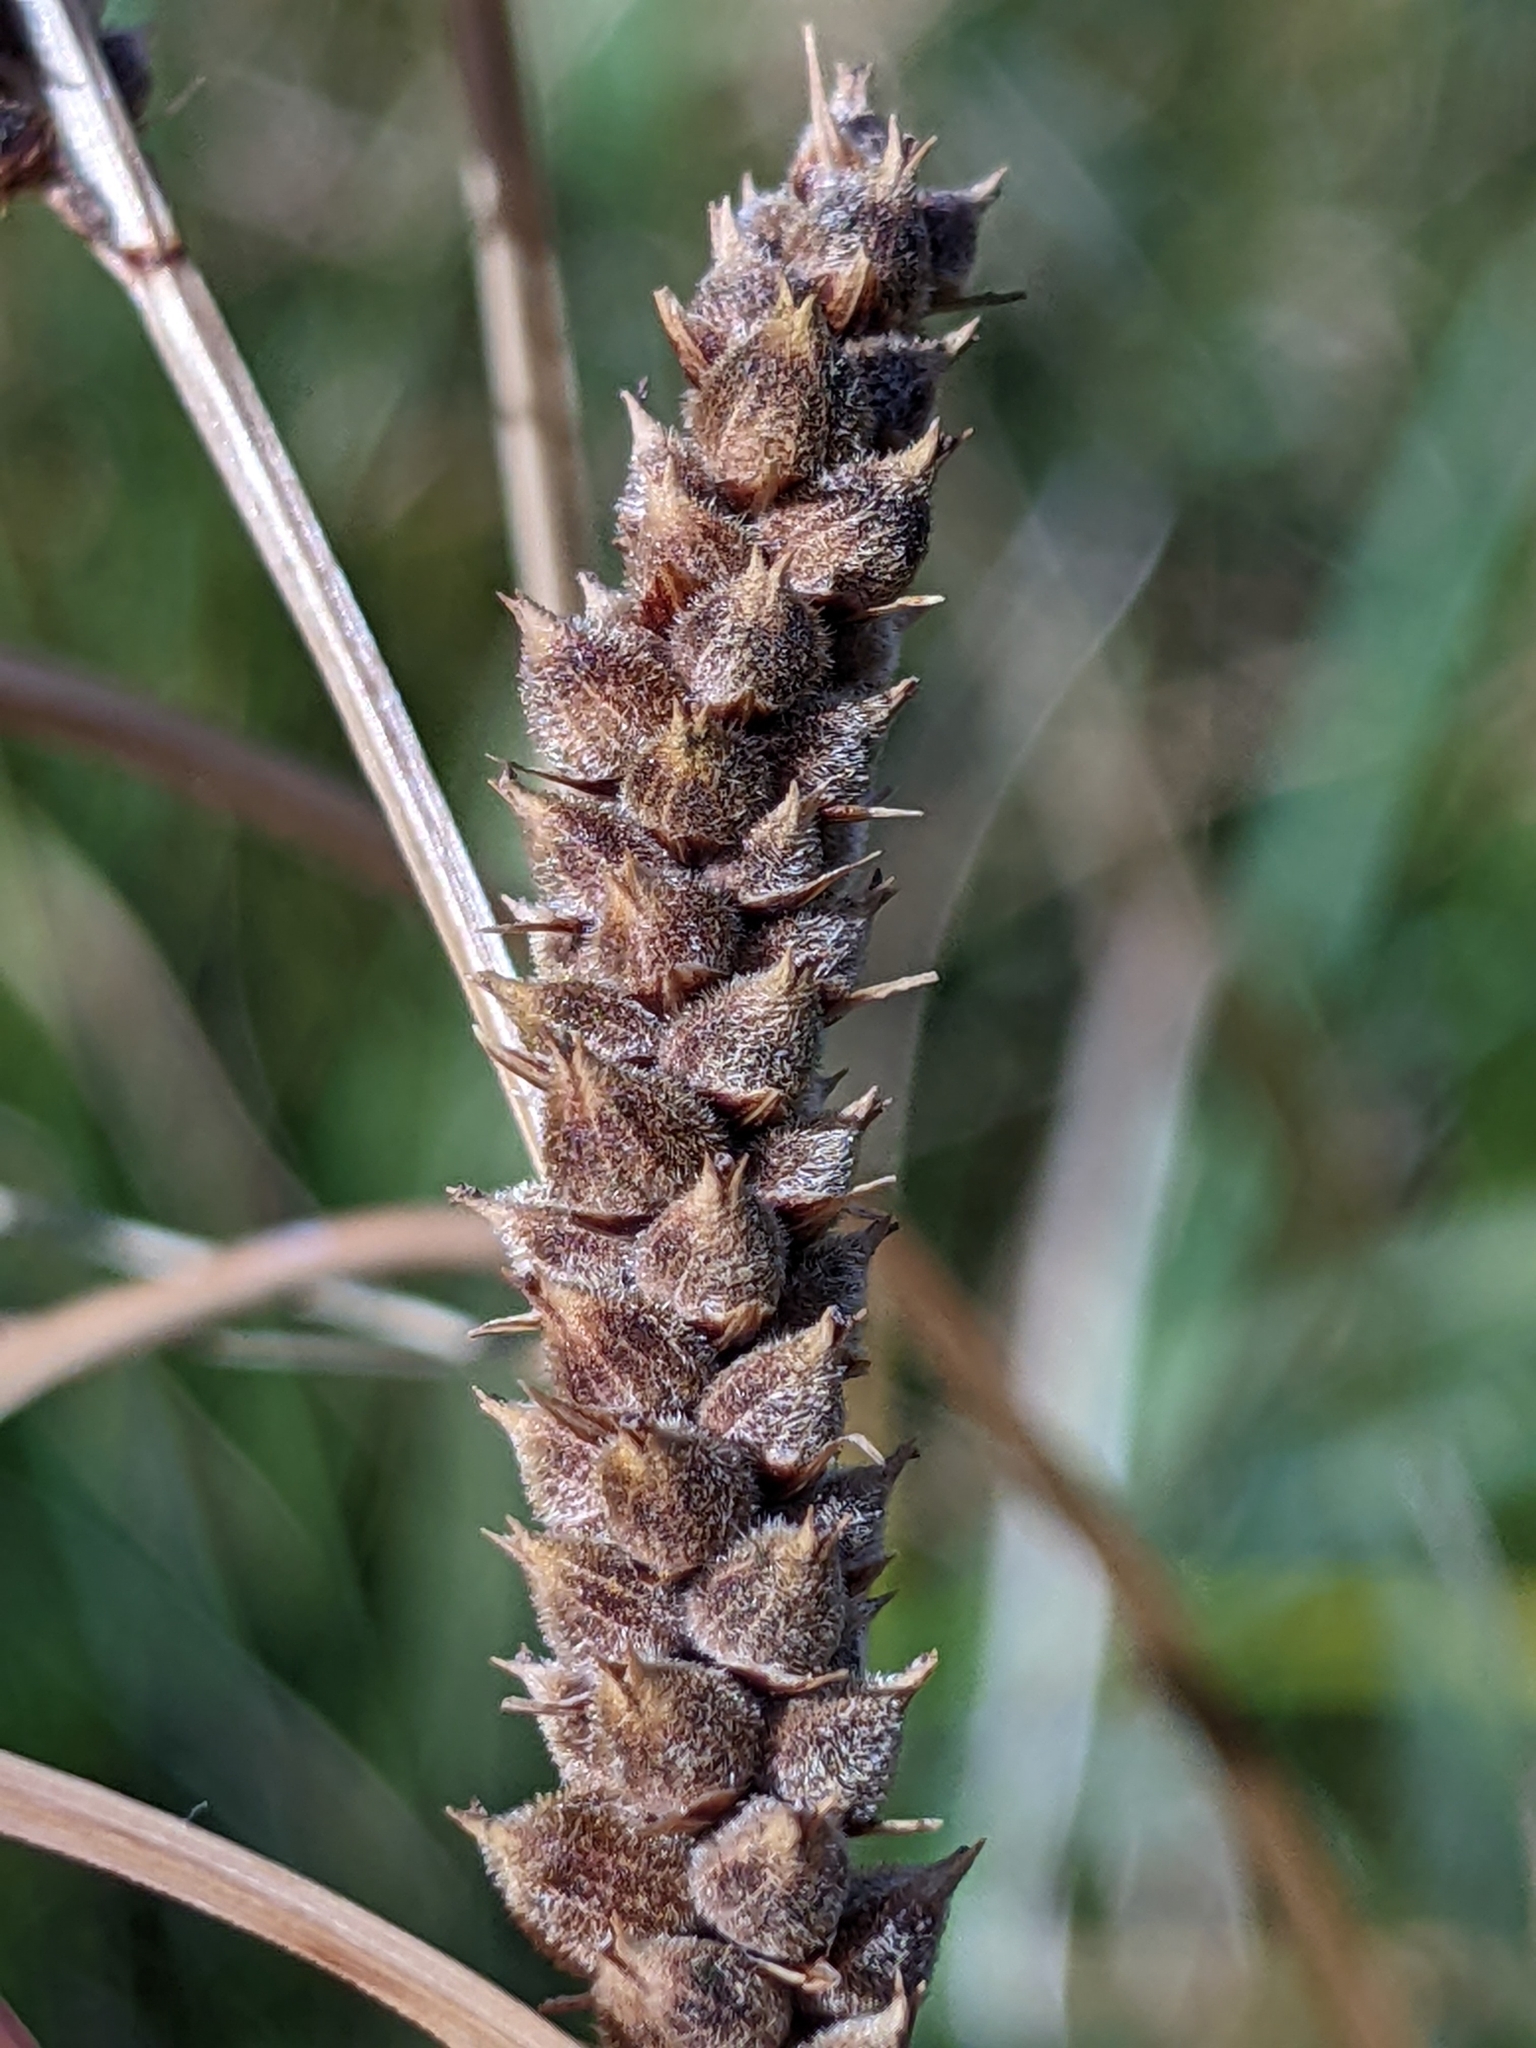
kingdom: Plantae
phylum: Tracheophyta
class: Liliopsida
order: Poales
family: Cyperaceae
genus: Carex
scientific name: Carex pellita
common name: Woolly sedge
